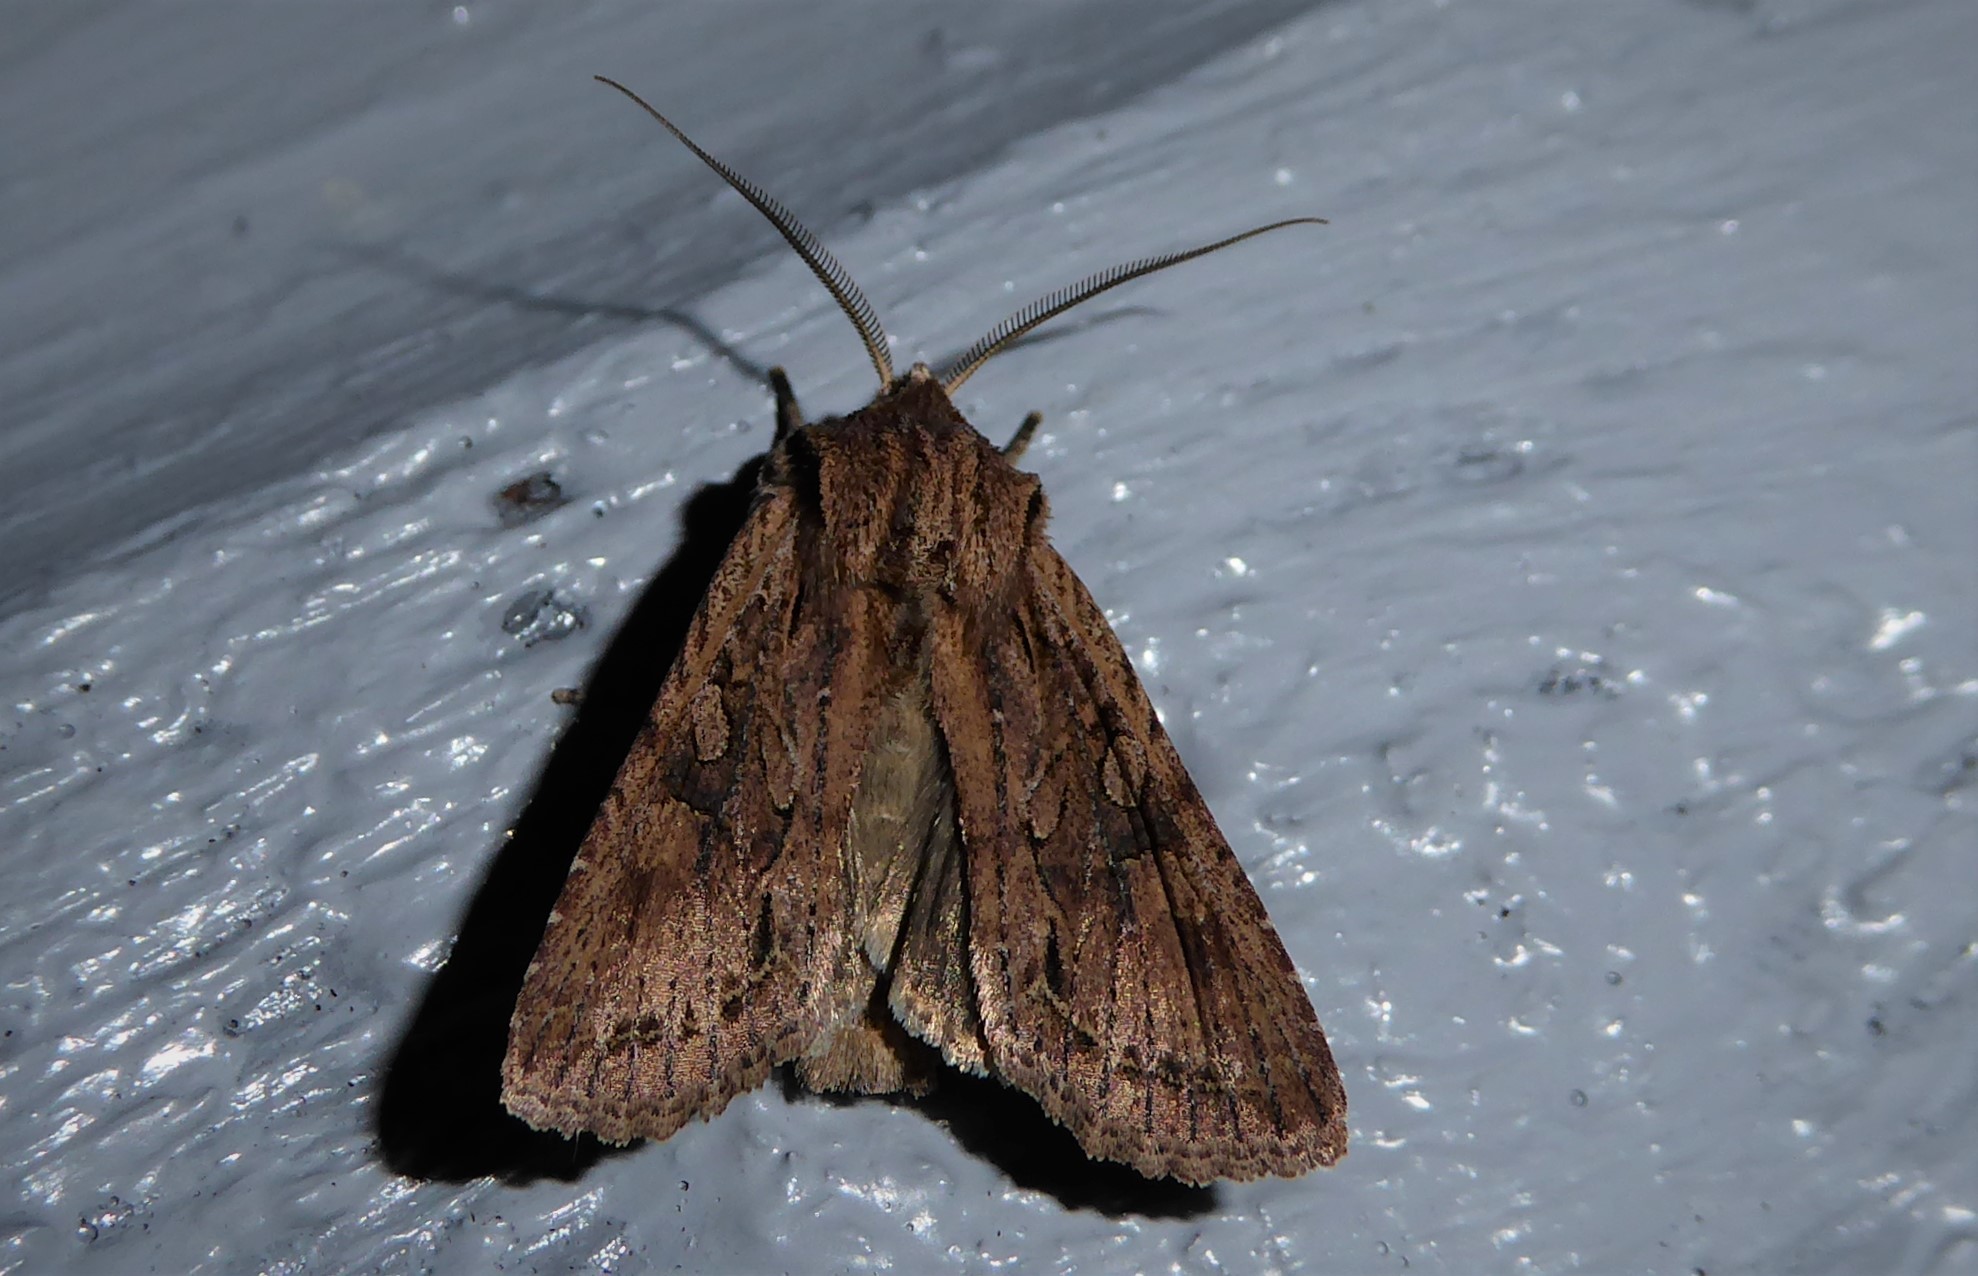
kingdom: Animalia
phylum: Arthropoda
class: Insecta
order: Lepidoptera
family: Noctuidae
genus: Ichneutica
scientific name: Ichneutica
